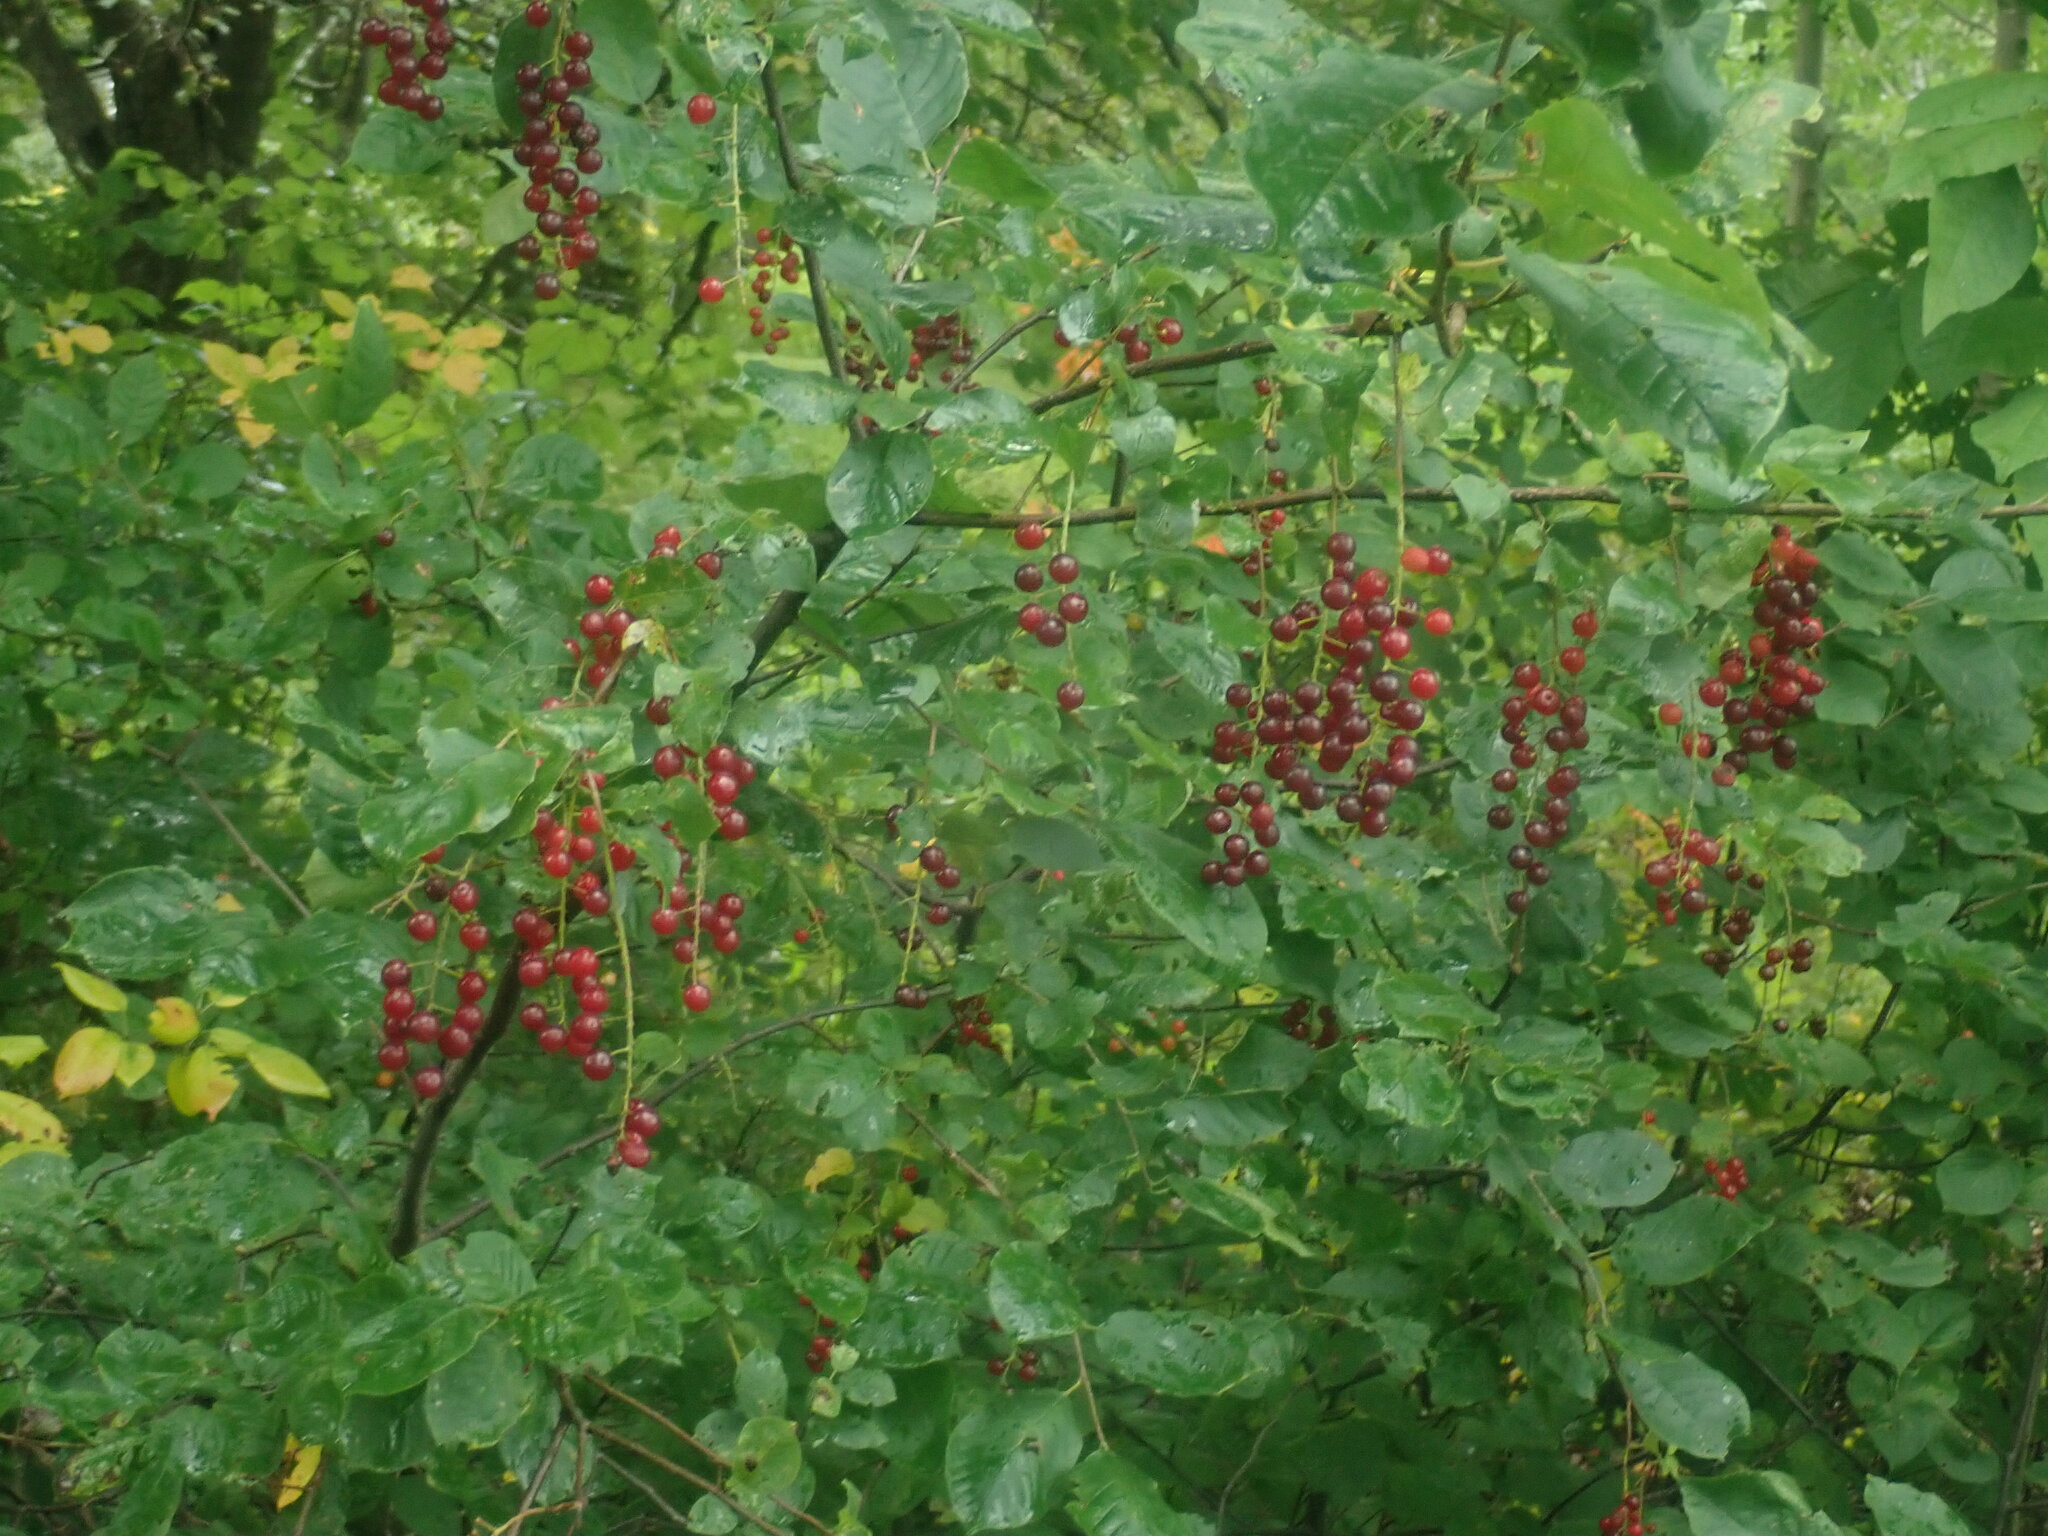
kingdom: Plantae
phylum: Tracheophyta
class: Magnoliopsida
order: Rosales
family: Rosaceae
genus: Prunus
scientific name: Prunus virginiana
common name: Chokecherry
